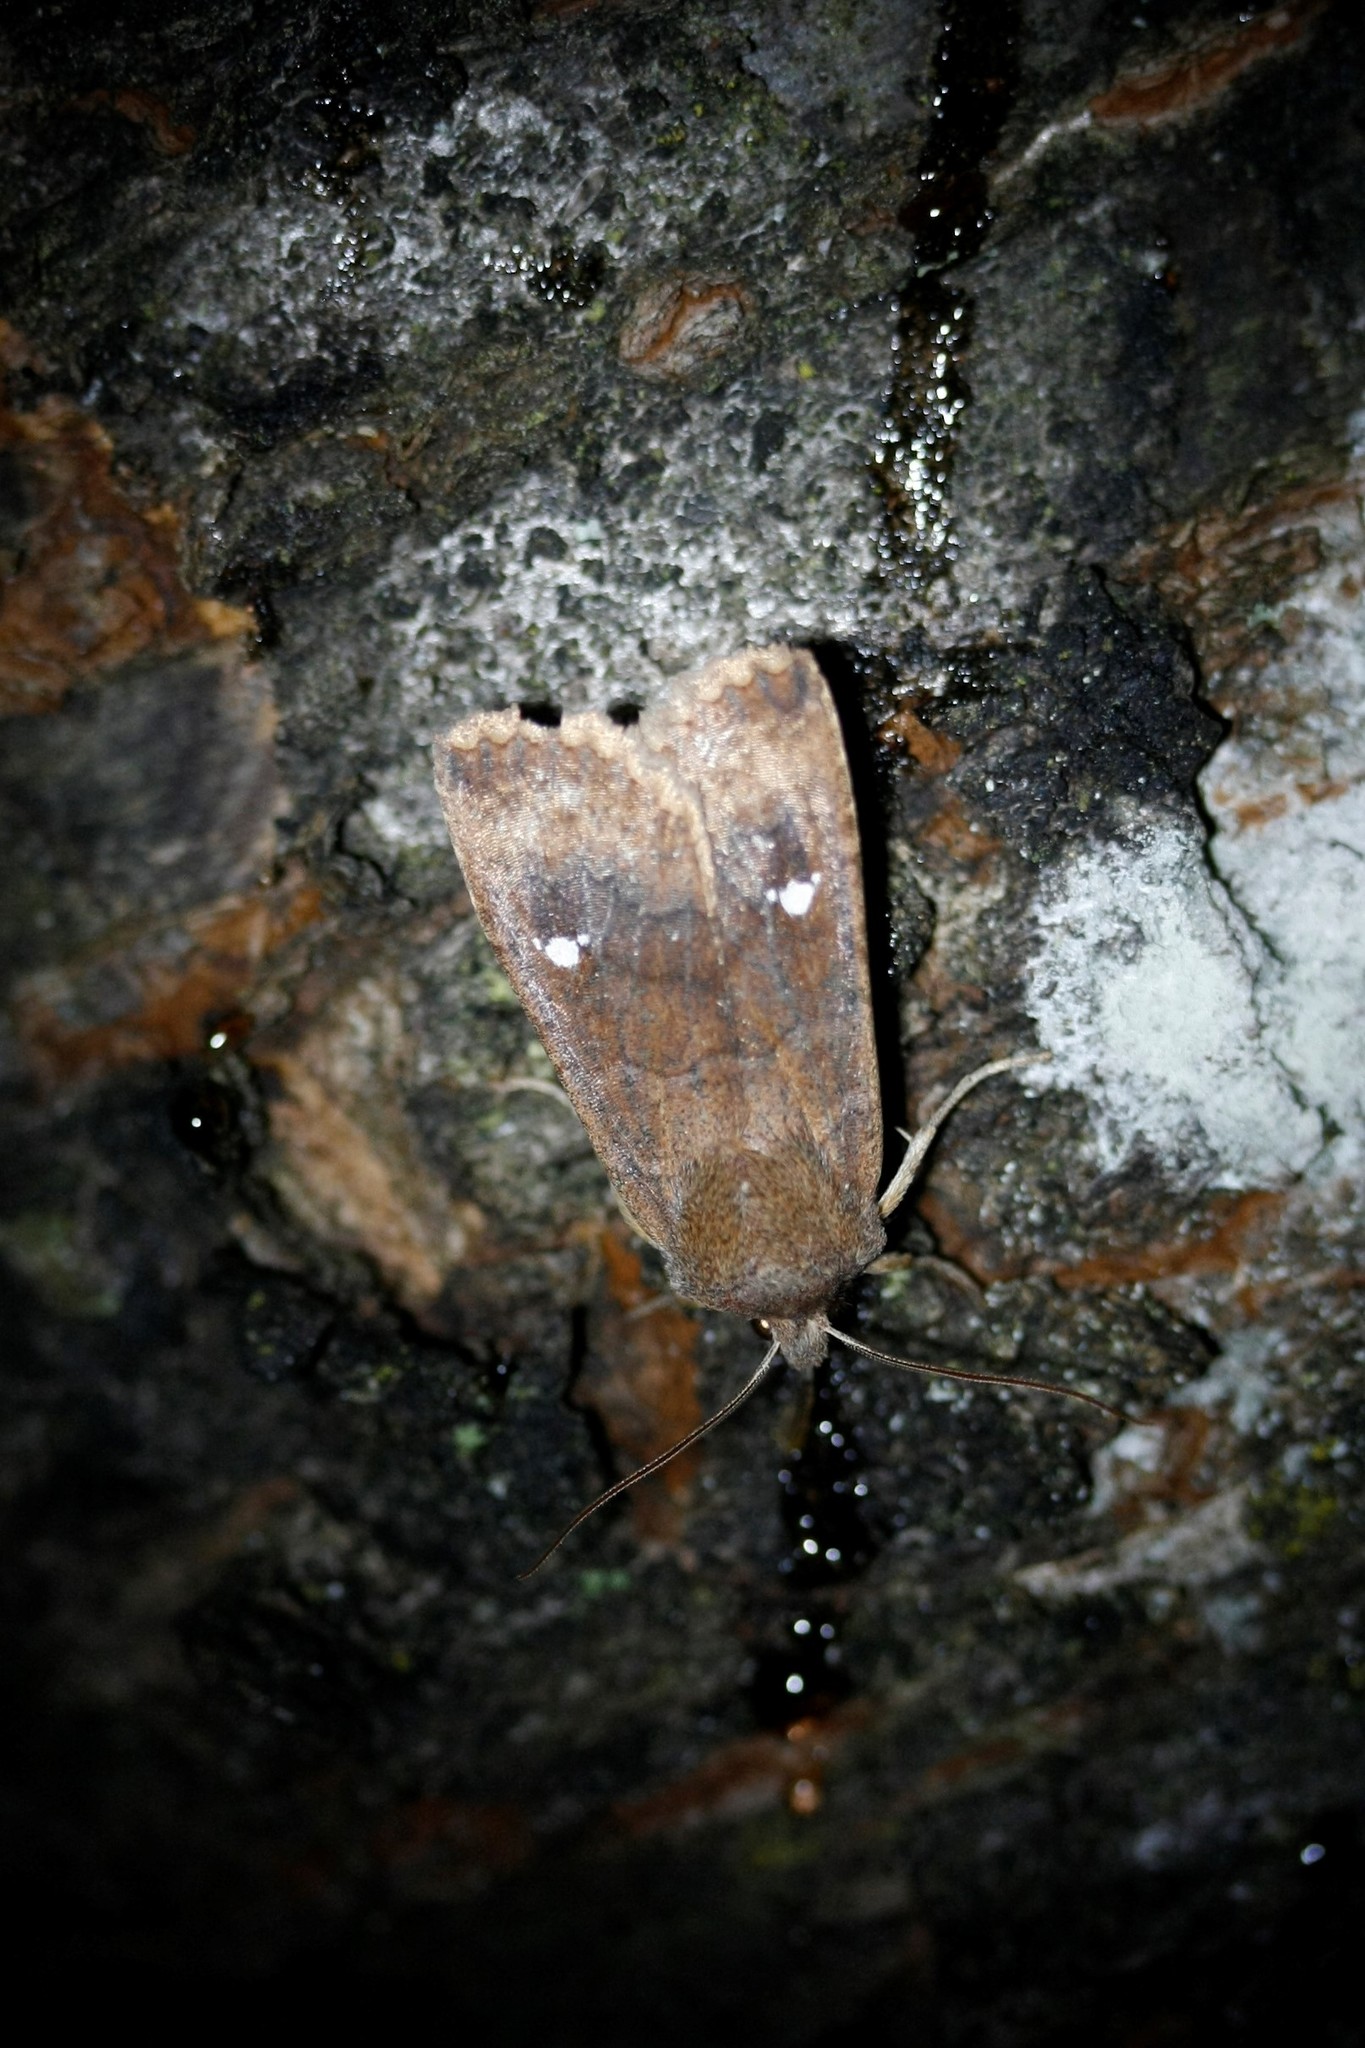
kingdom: Animalia
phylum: Arthropoda
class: Insecta
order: Lepidoptera
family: Noctuidae
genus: Eupsilia
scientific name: Eupsilia transversa
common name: Satellite
